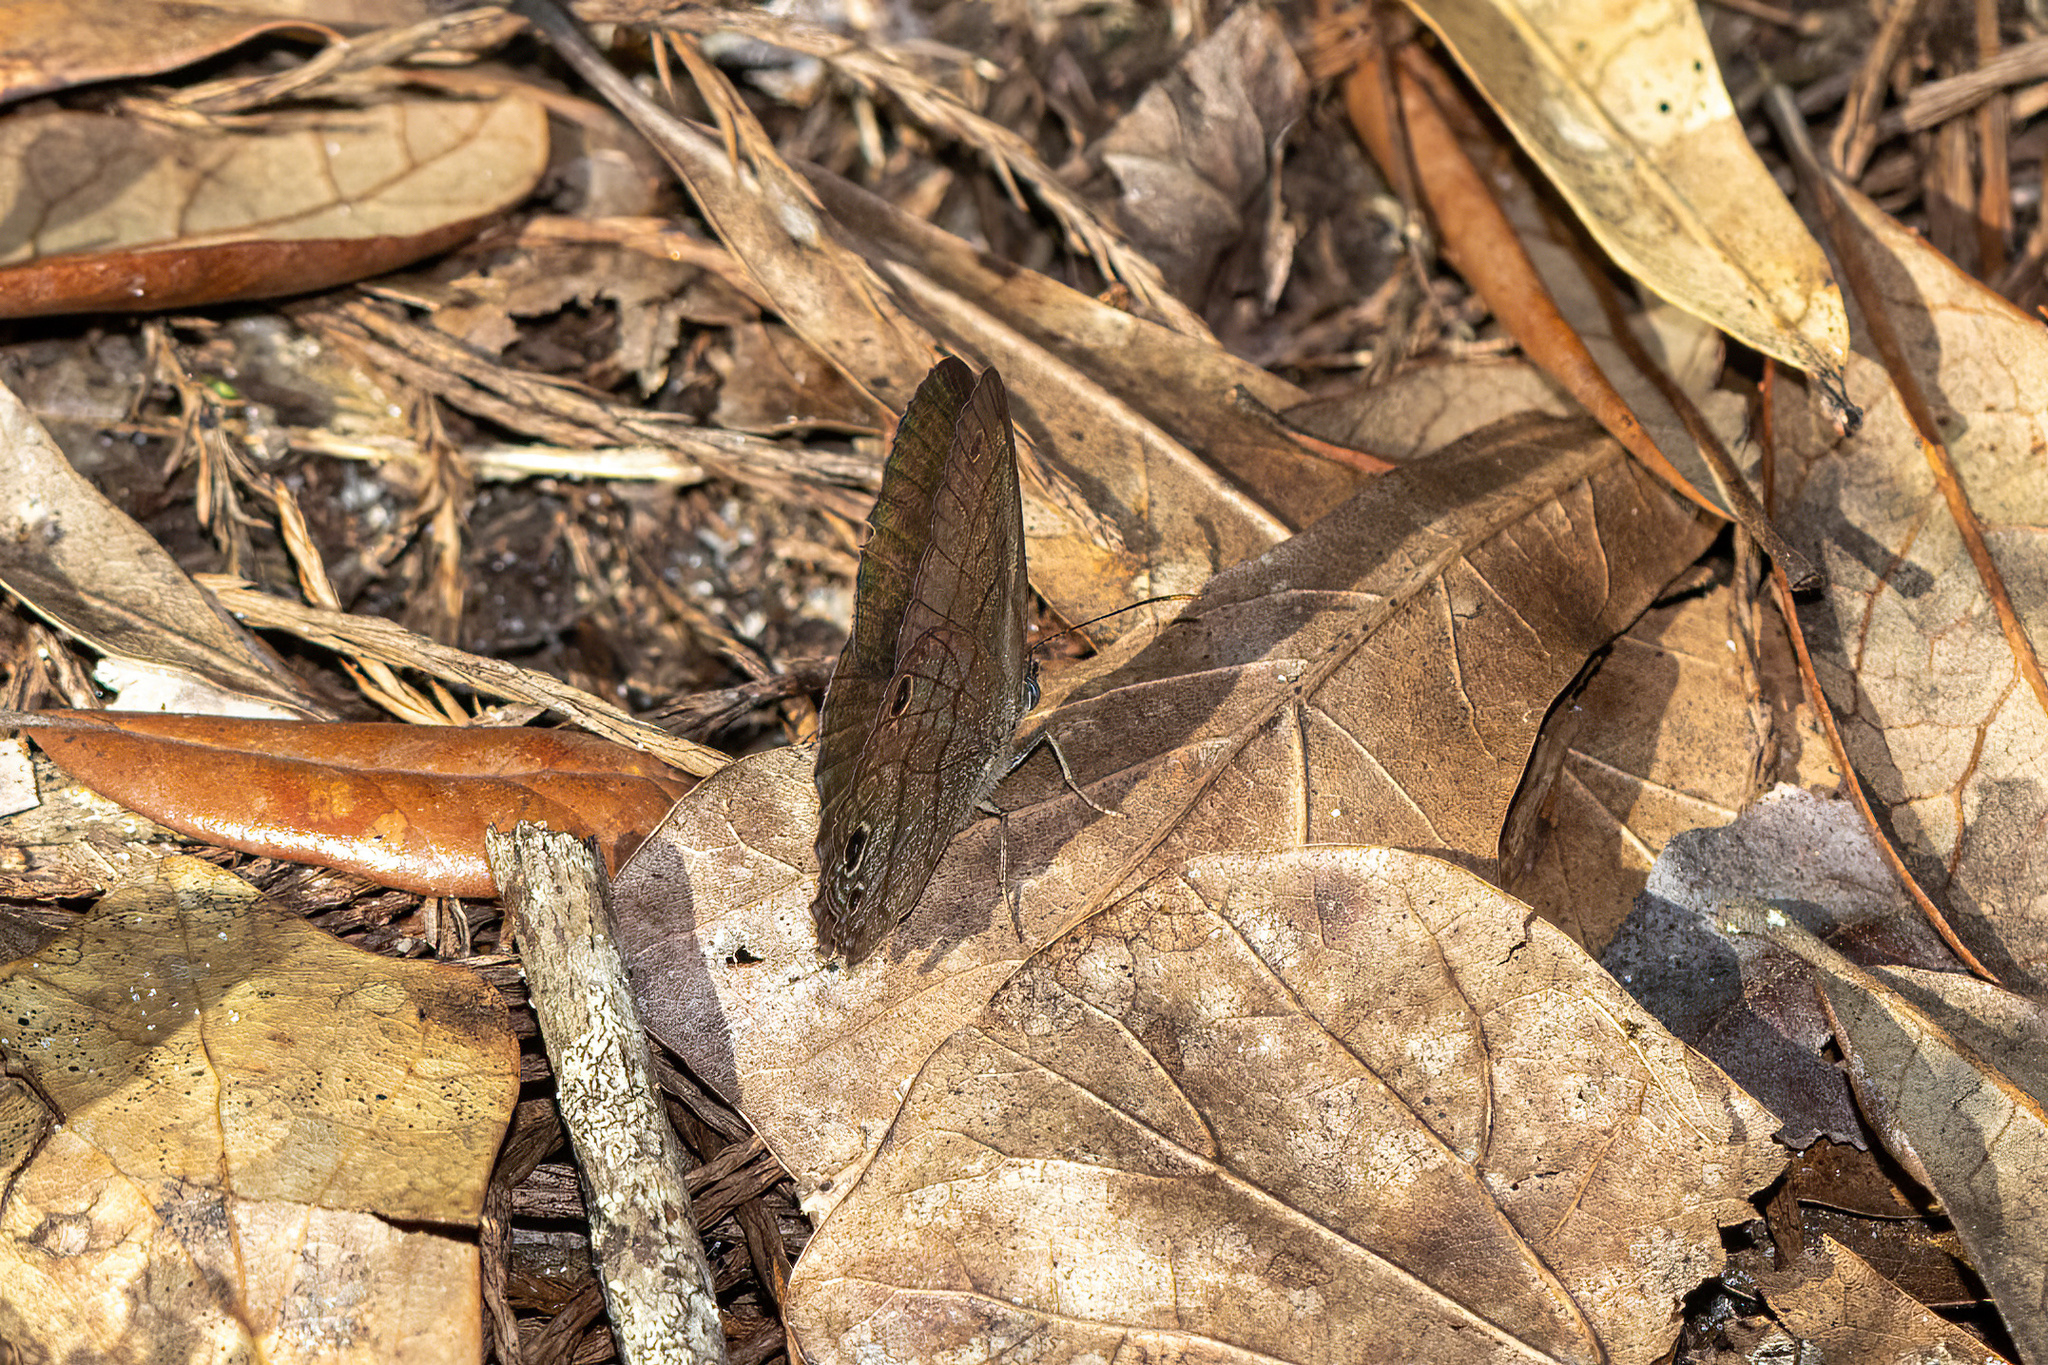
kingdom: Animalia
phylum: Arthropoda
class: Insecta
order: Lepidoptera
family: Nymphalidae
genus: Hermeuptychia
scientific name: Hermeuptychia intricata
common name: Intricate satyr
